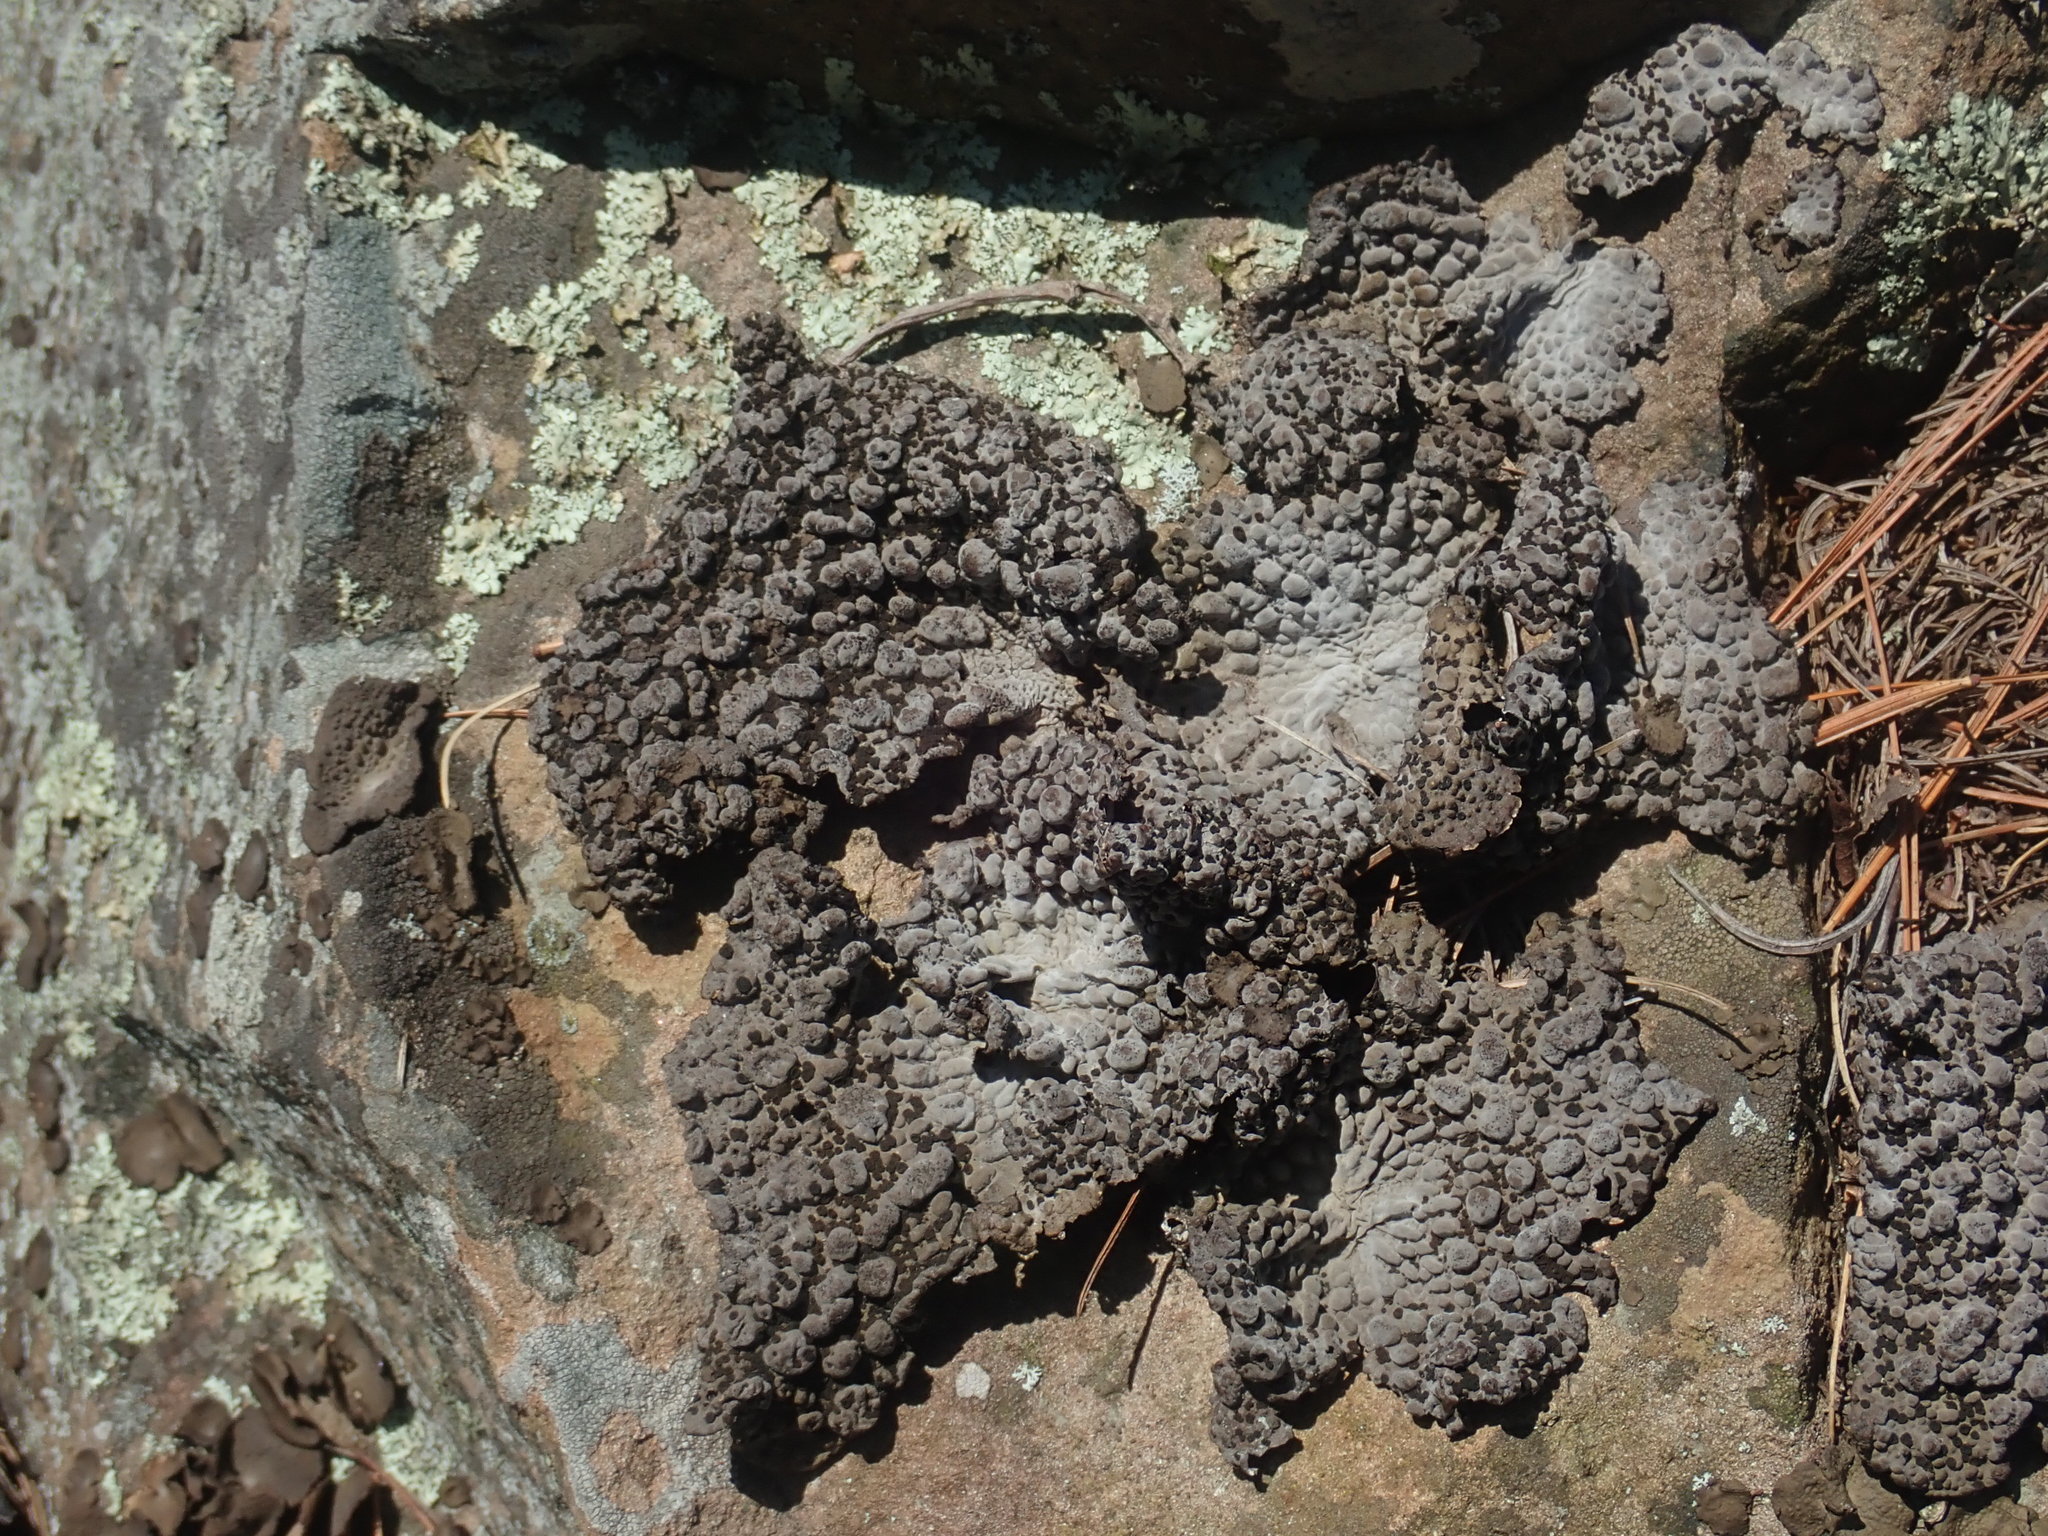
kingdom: Fungi
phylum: Ascomycota
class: Lecanoromycetes
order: Umbilicariales
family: Umbilicariaceae
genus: Lasallia
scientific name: Lasallia papulosa
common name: Common toadskin lichen
